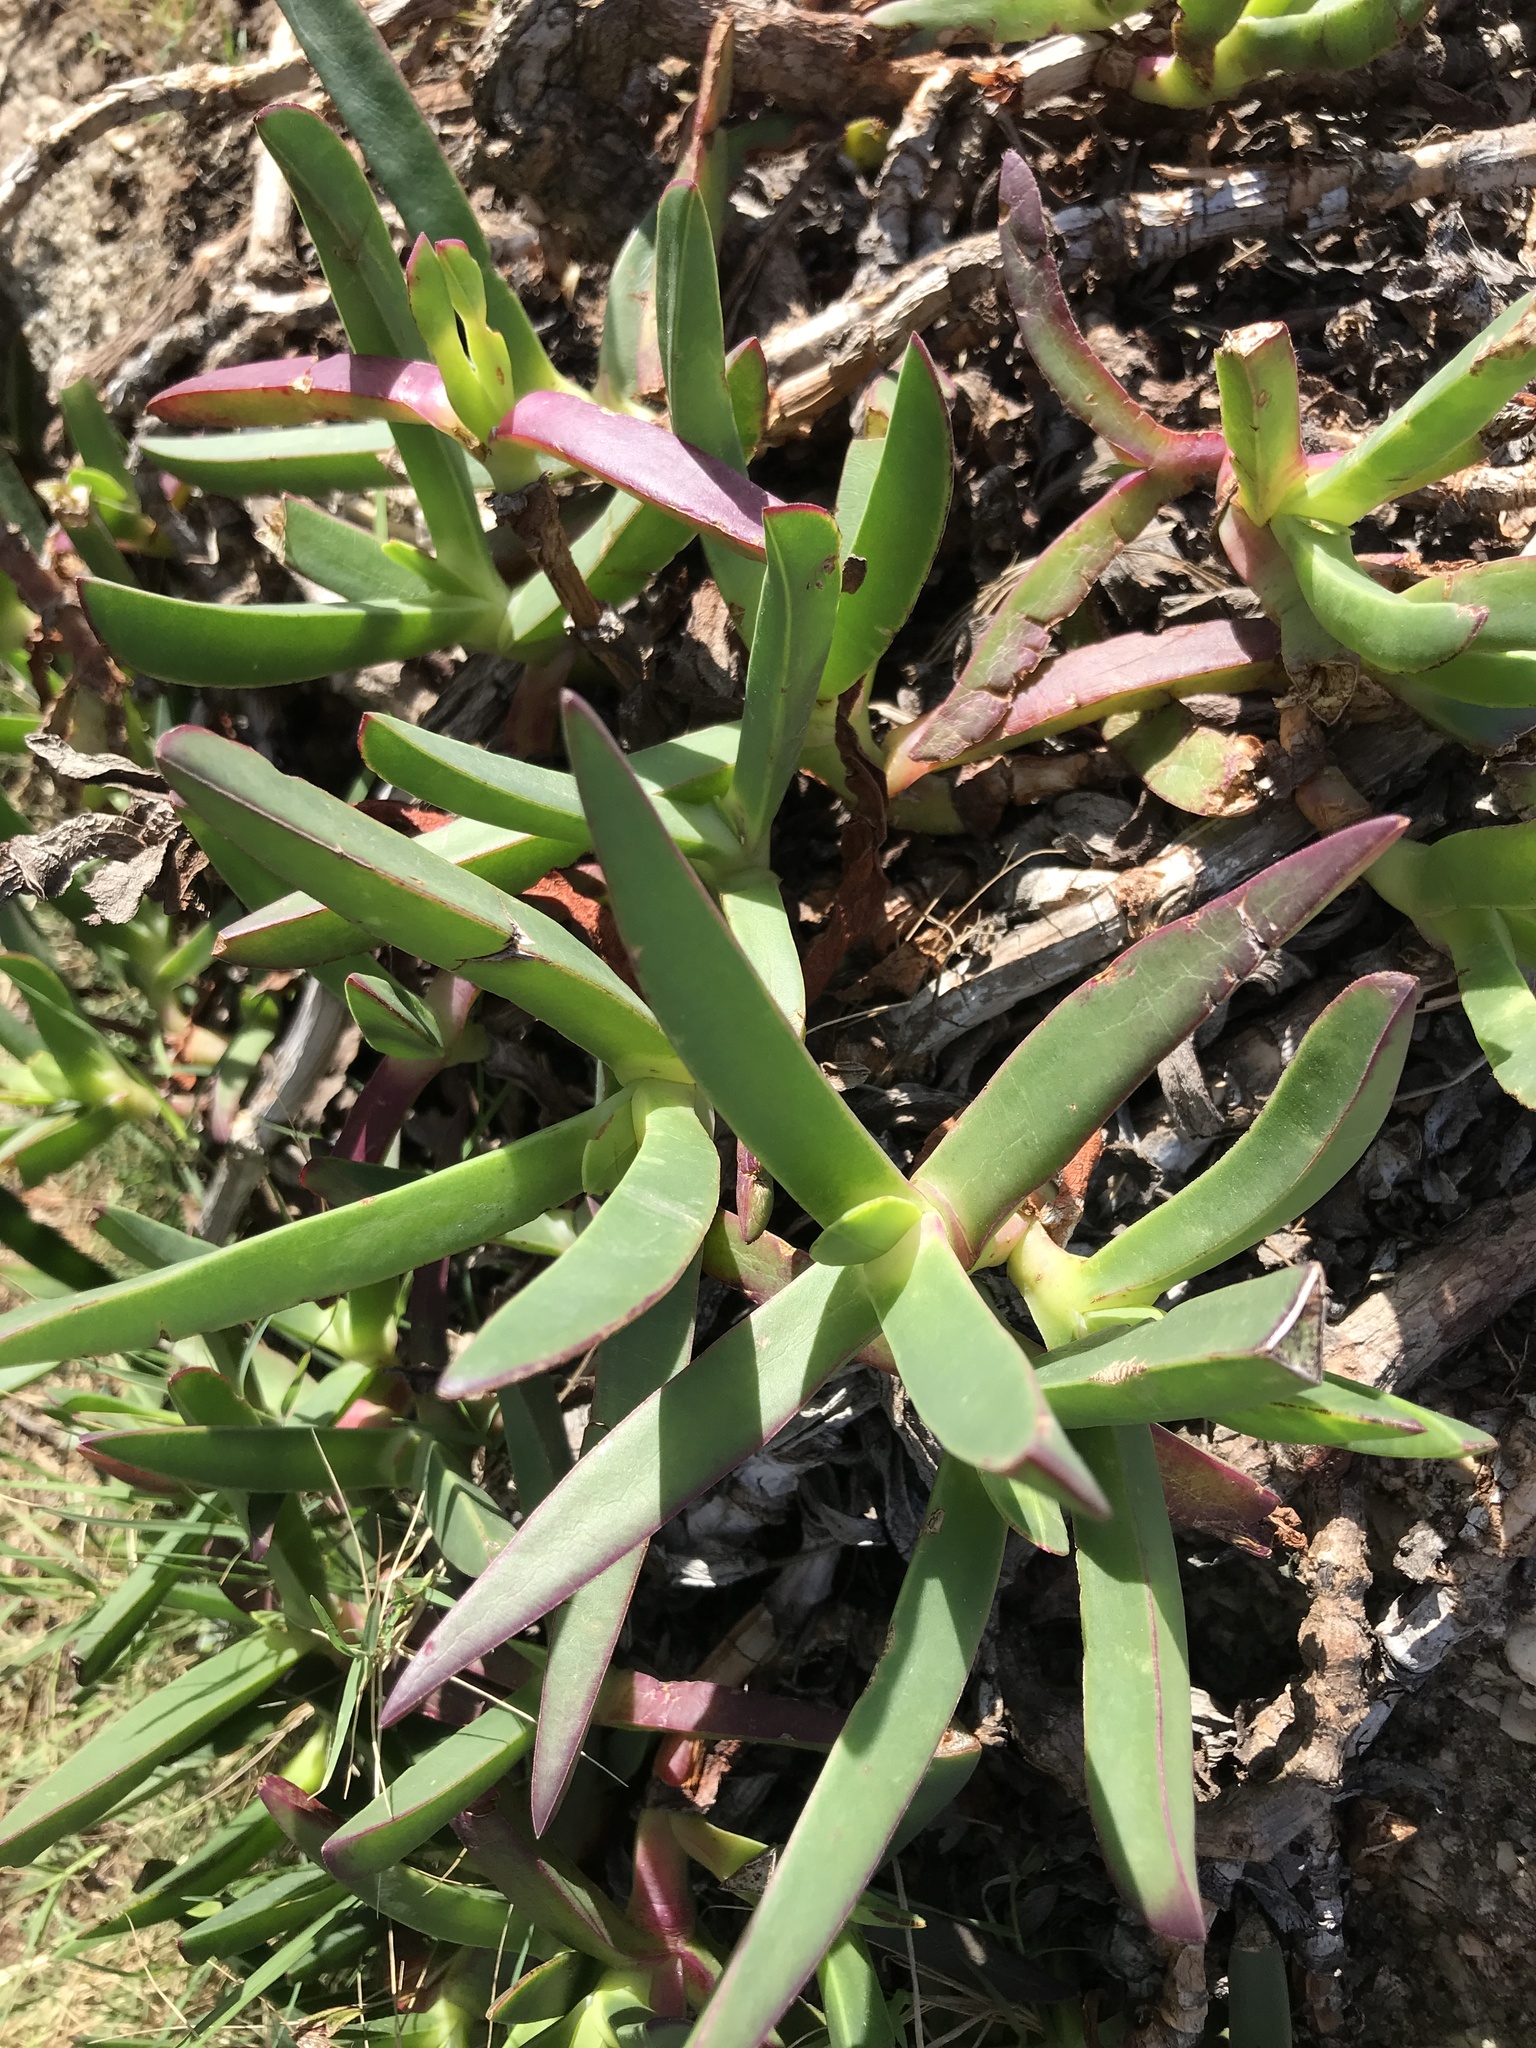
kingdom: Plantae
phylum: Tracheophyta
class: Magnoliopsida
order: Caryophyllales
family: Aizoaceae
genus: Carpobrotus
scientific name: Carpobrotus edulis
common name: Hottentot-fig
